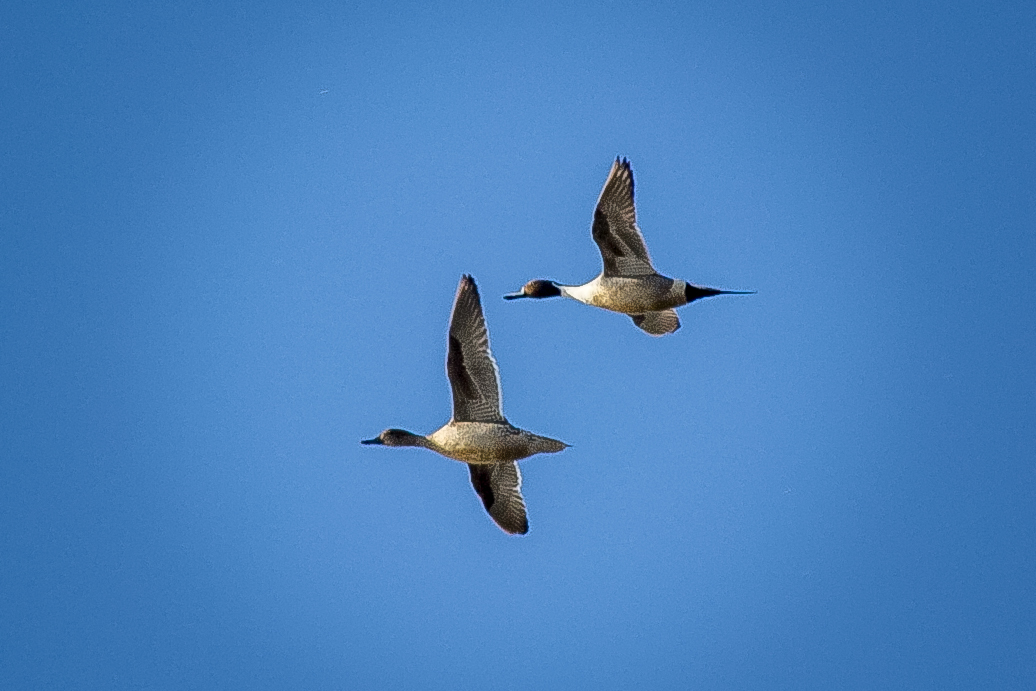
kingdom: Animalia
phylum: Chordata
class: Aves
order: Anseriformes
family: Anatidae
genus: Anas
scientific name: Anas acuta
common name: Northern pintail
